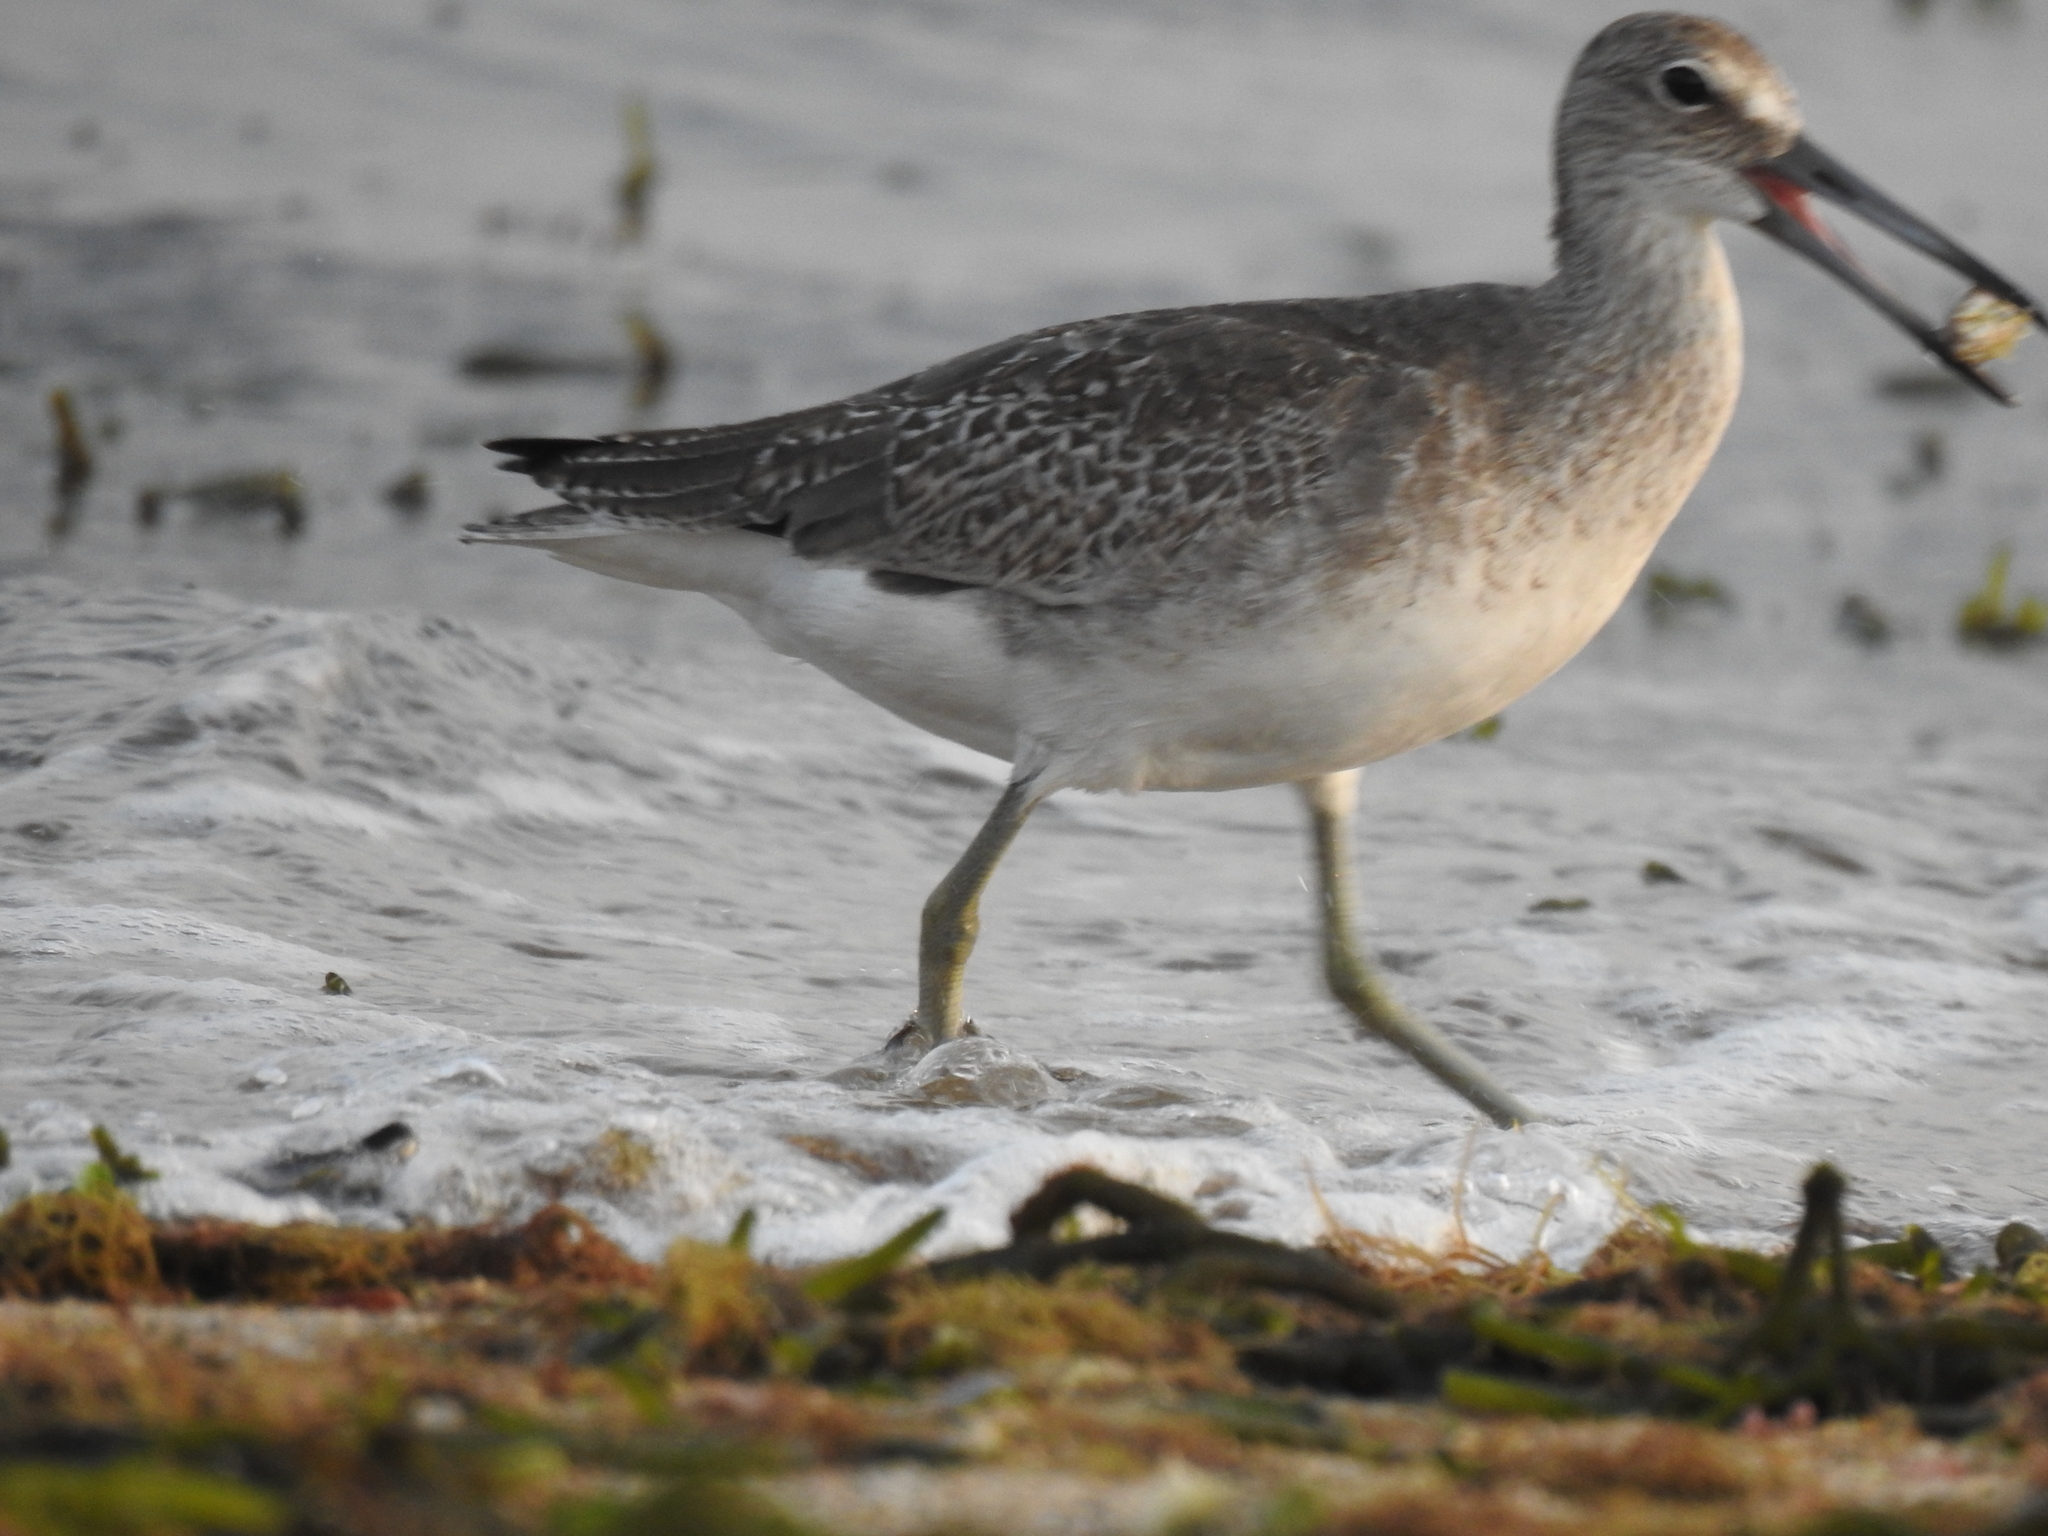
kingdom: Animalia
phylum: Chordata
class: Aves
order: Charadriiformes
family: Scolopacidae
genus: Tringa
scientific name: Tringa semipalmata
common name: Willet
